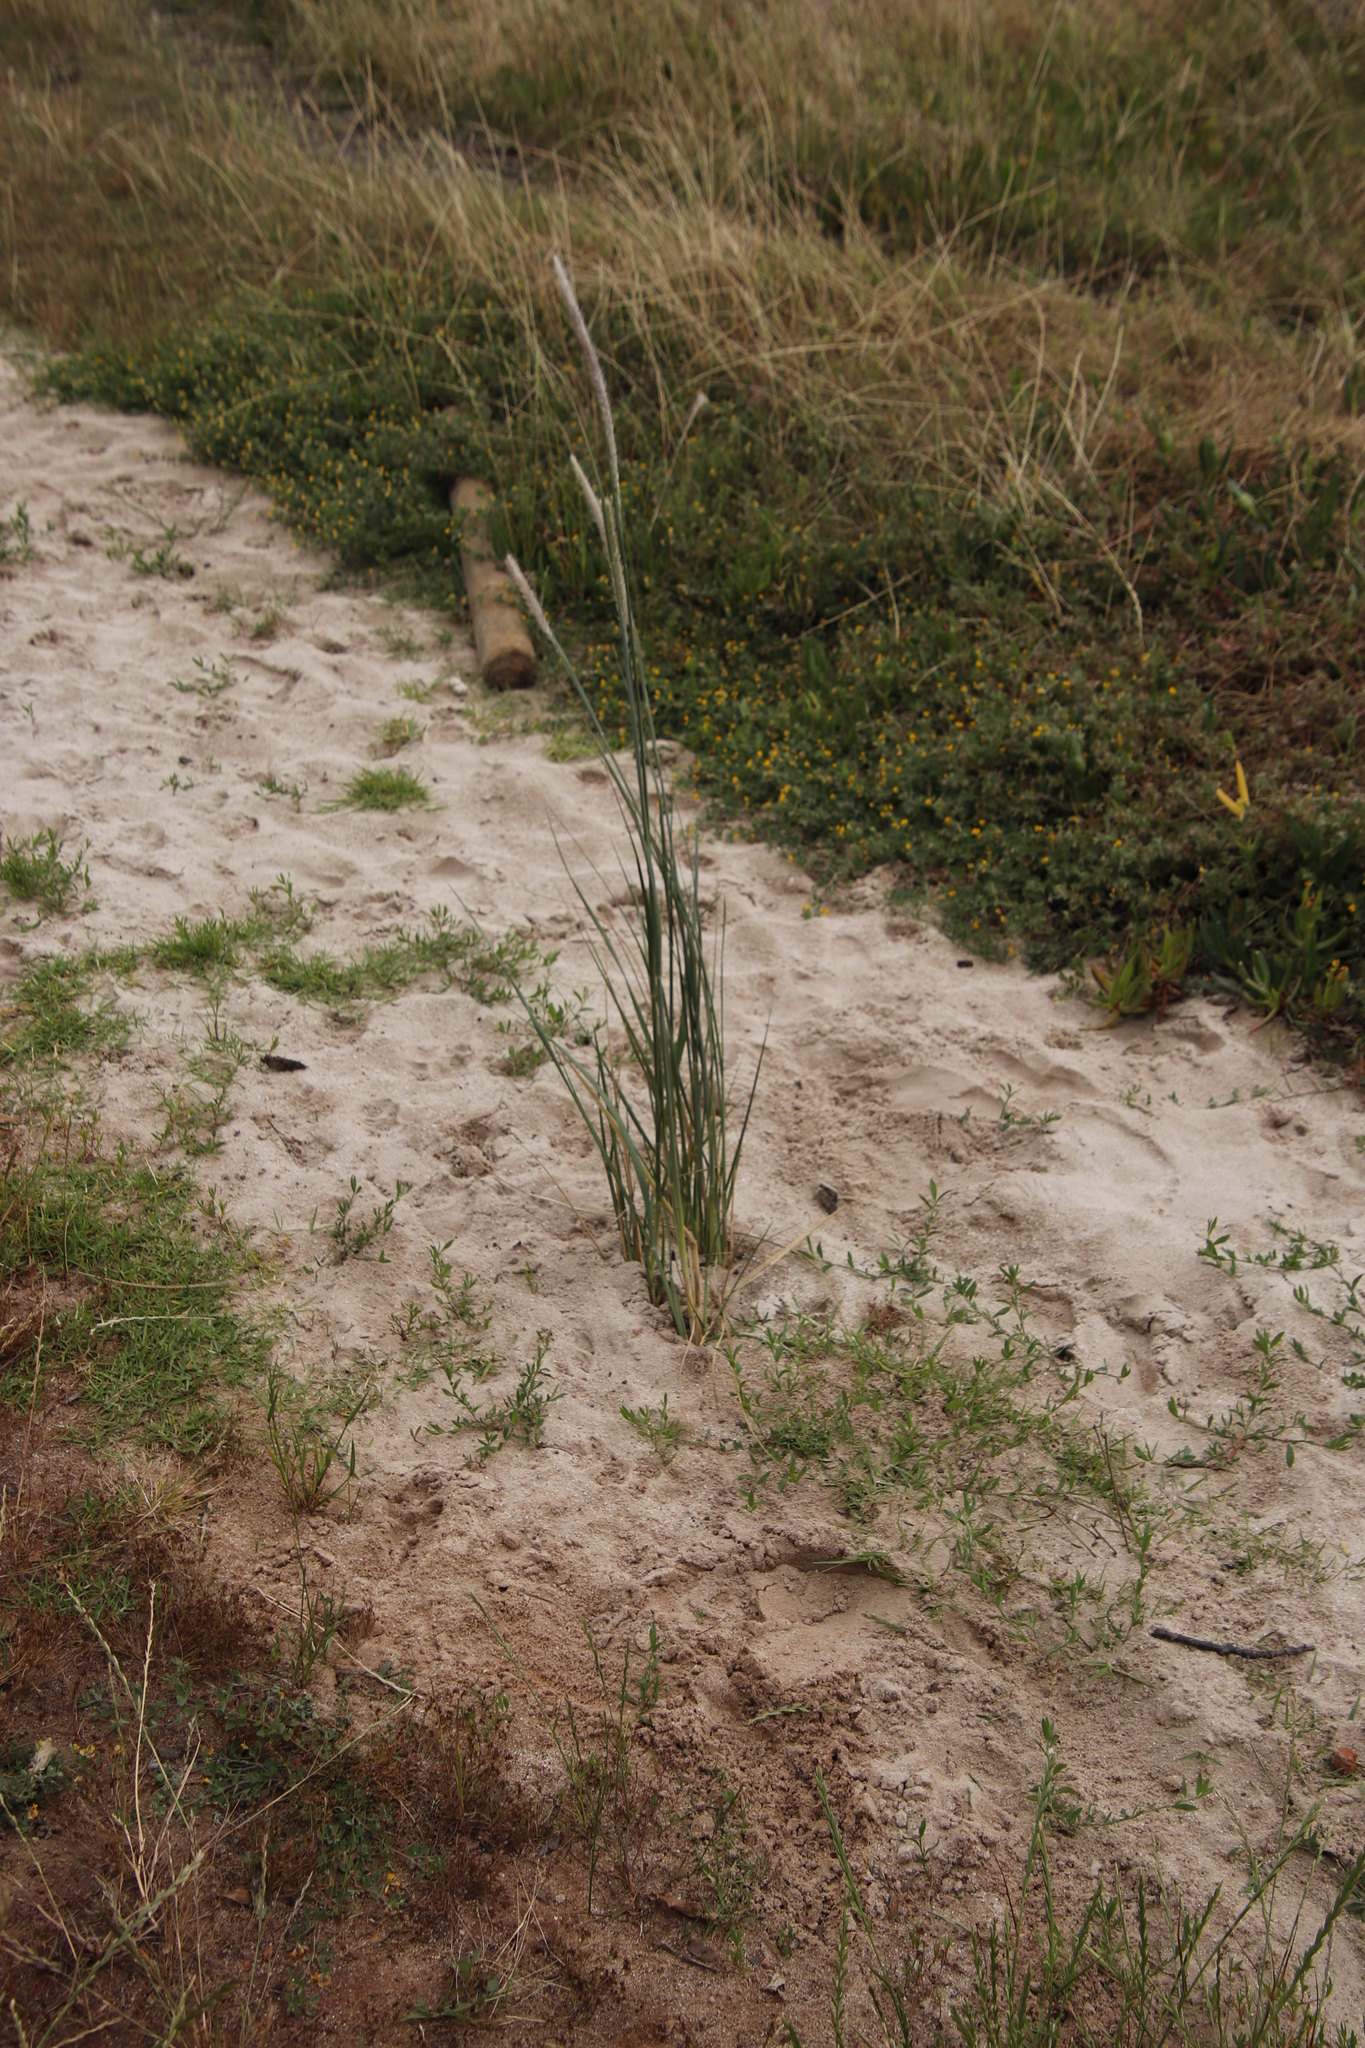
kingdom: Plantae
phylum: Tracheophyta
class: Liliopsida
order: Poales
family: Poaceae
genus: Cenchrus
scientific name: Cenchrus caudatus
